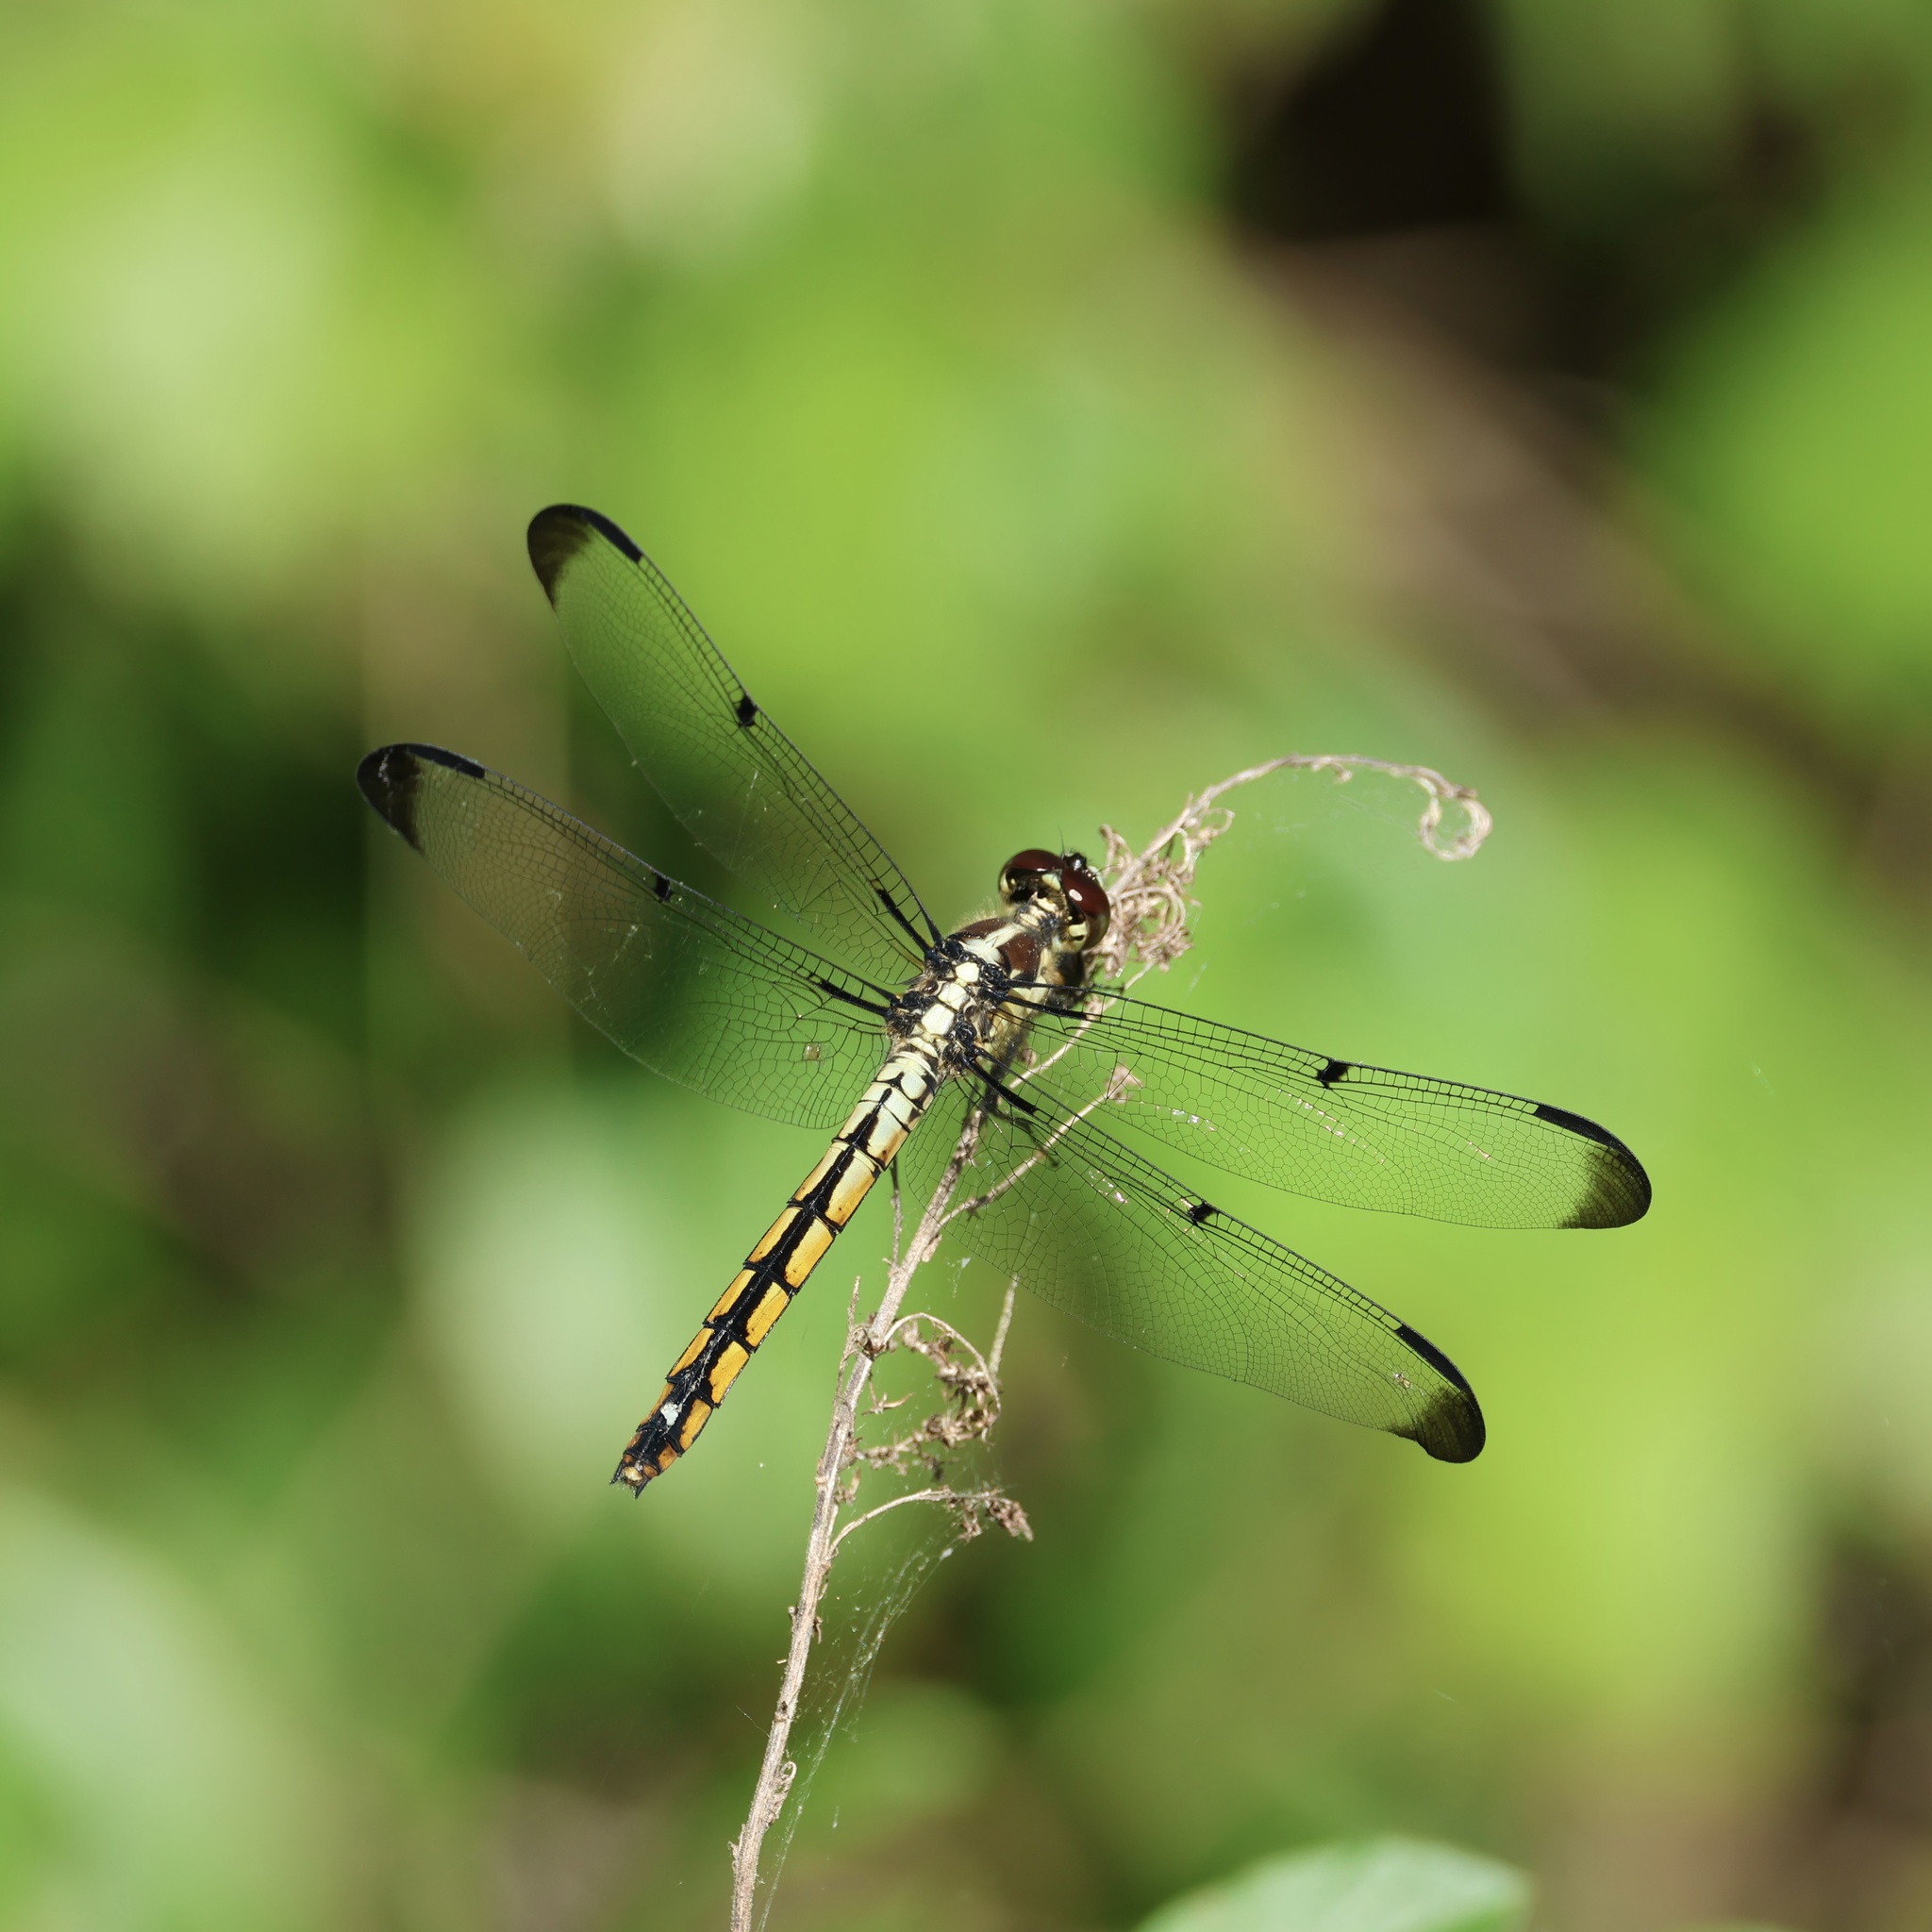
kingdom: Animalia
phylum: Arthropoda
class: Insecta
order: Odonata
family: Libellulidae
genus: Libellula
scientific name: Libellula vibrans
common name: Great blue skimmer
